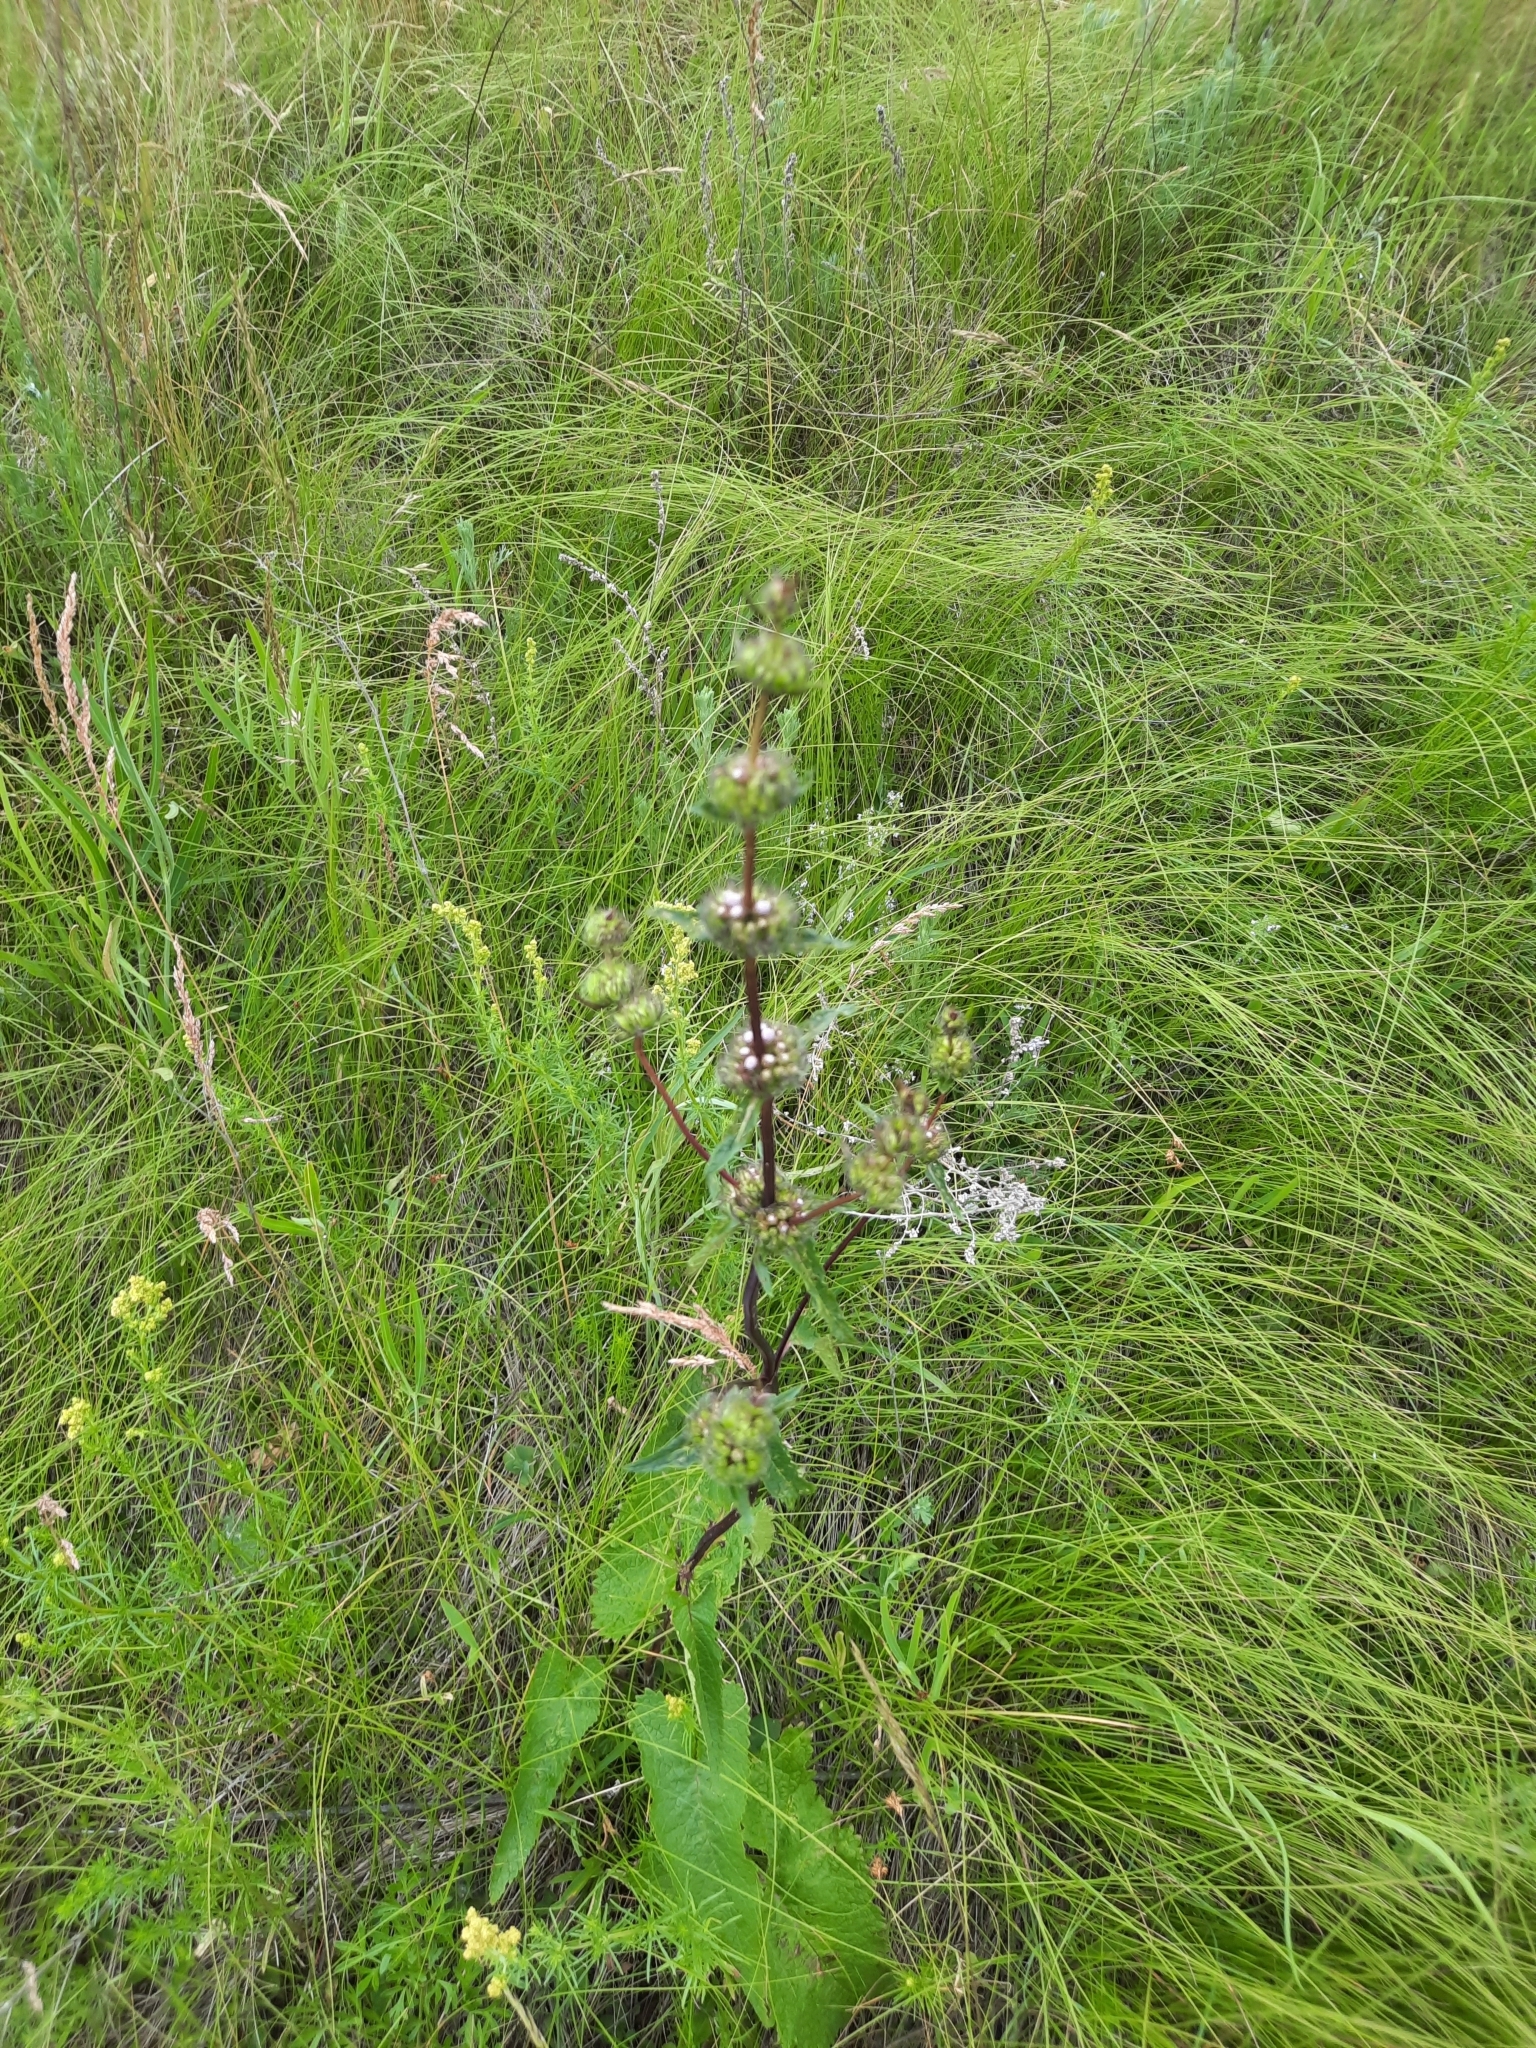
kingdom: Plantae
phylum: Tracheophyta
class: Magnoliopsida
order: Lamiales
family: Lamiaceae
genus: Phlomoides
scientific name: Phlomoides tuberosa
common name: Tuberous jerusalem sage
